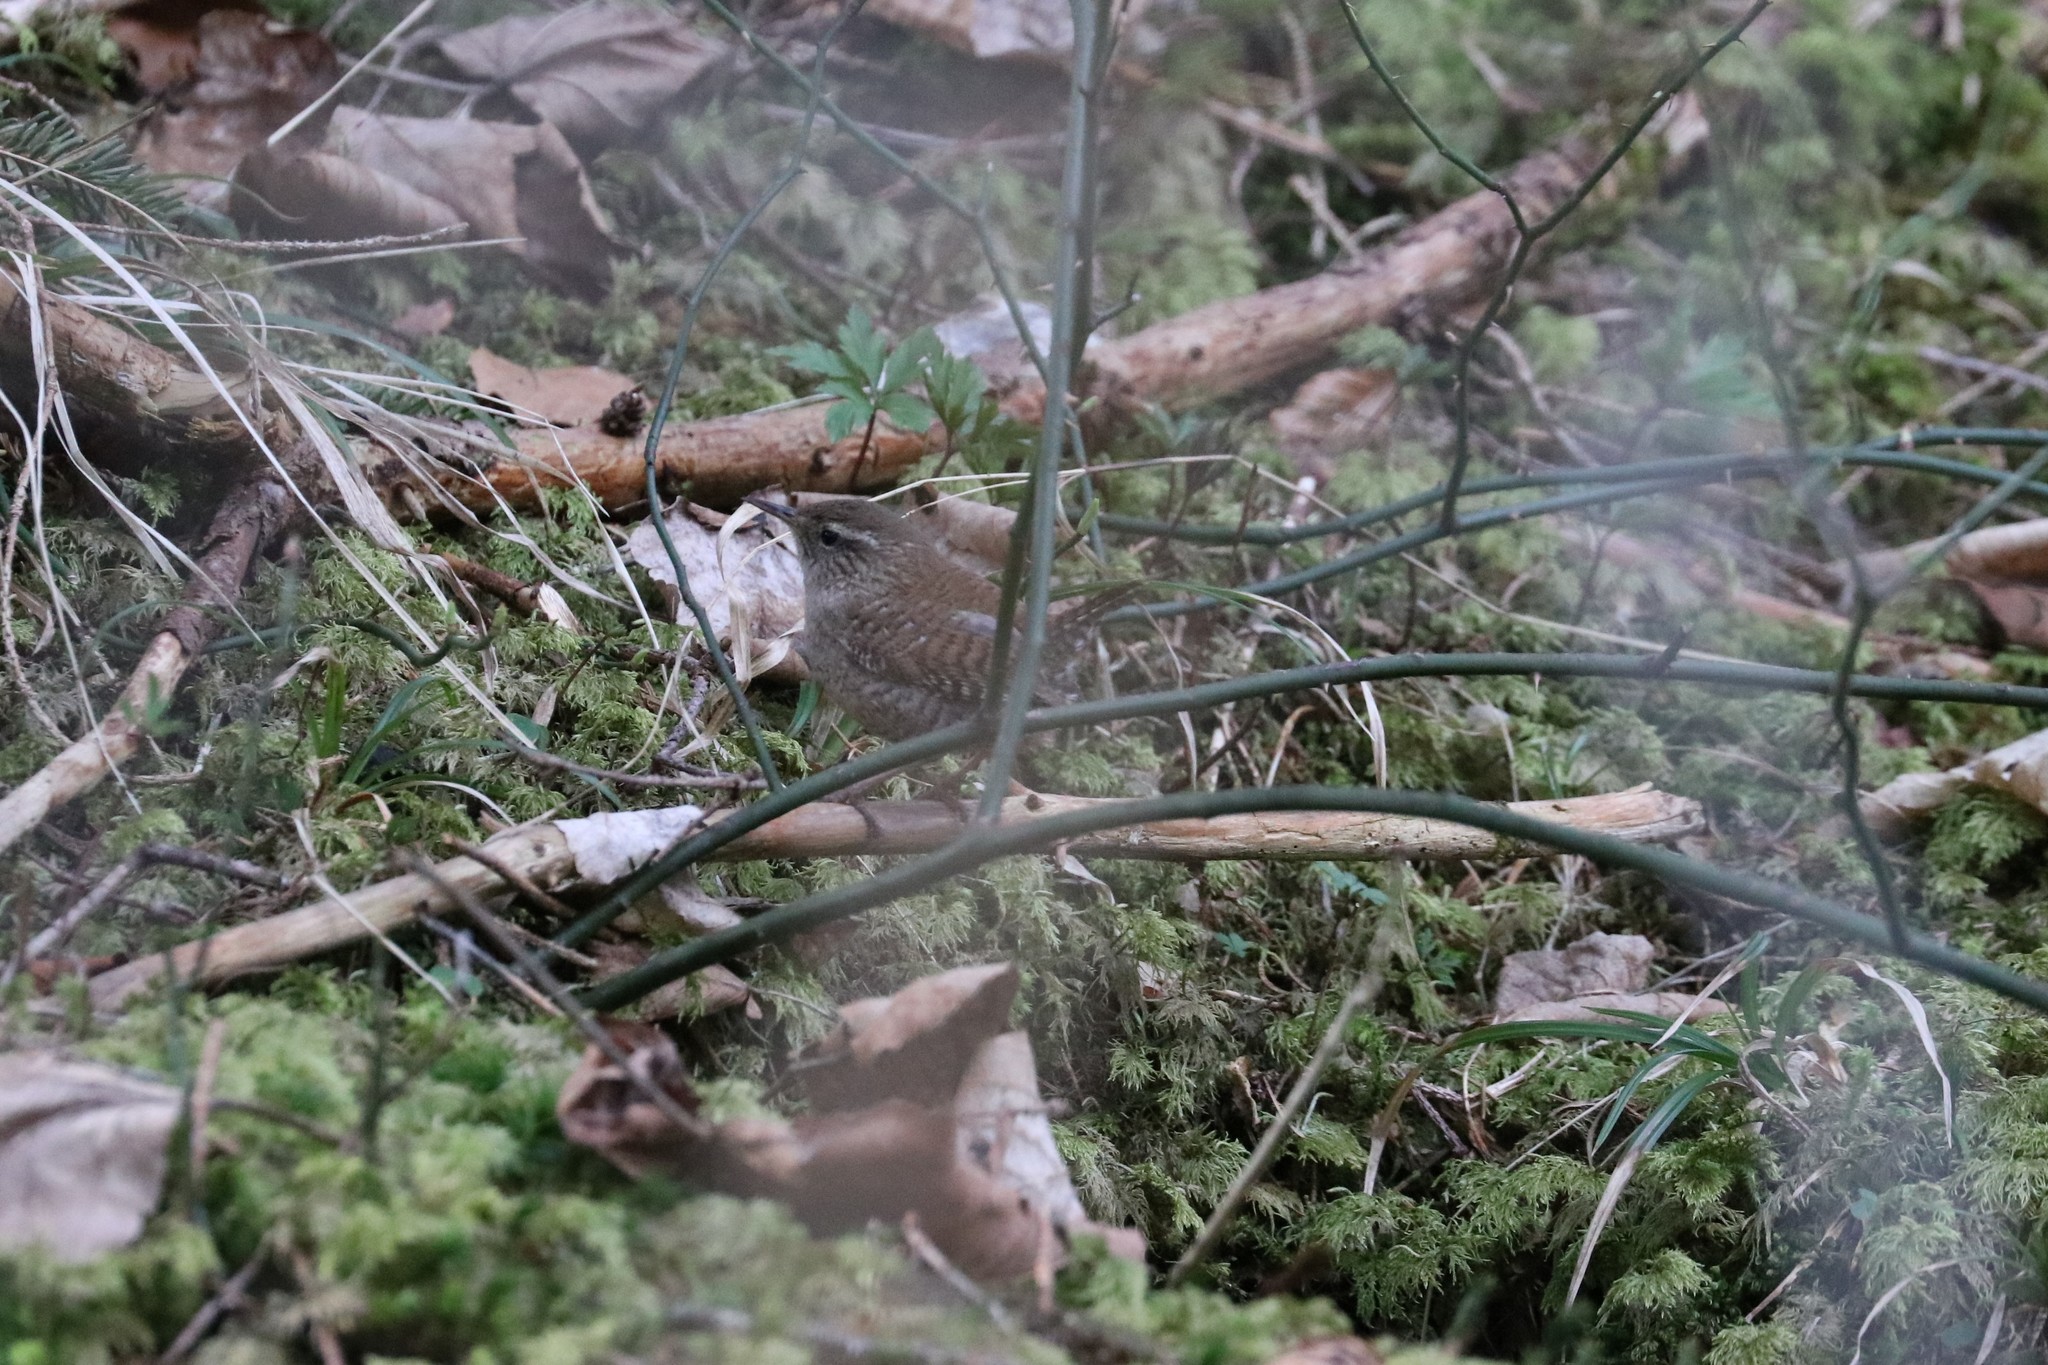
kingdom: Animalia
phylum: Chordata
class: Aves
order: Passeriformes
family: Troglodytidae
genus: Troglodytes
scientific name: Troglodytes troglodytes
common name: Eurasian wren
